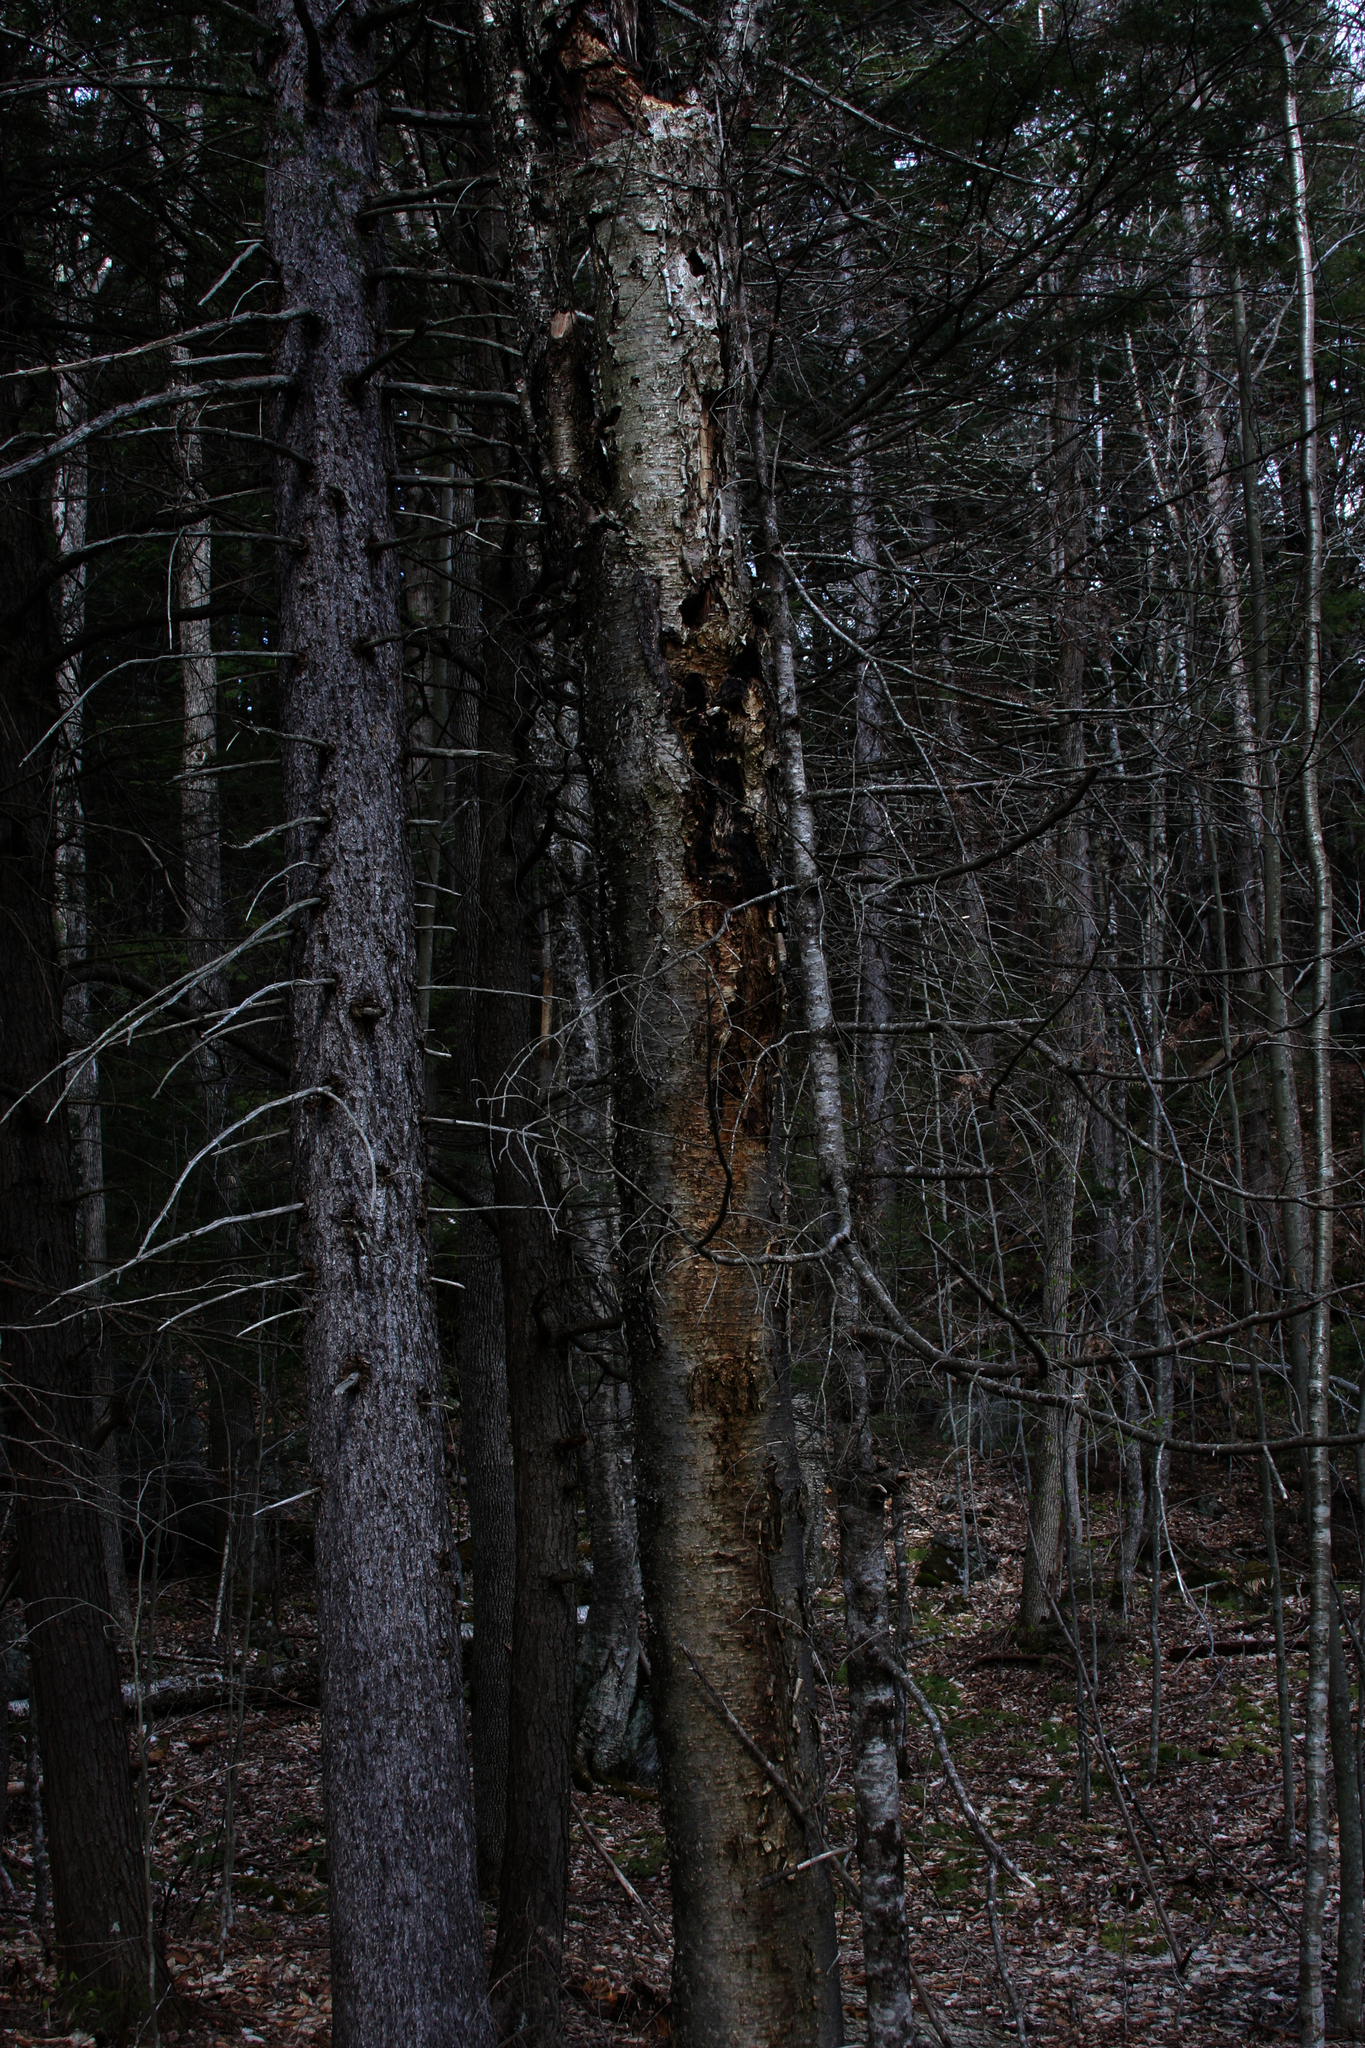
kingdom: Plantae
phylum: Tracheophyta
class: Magnoliopsida
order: Fagales
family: Betulaceae
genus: Betula
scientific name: Betula alleghaniensis
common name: Yellow birch
